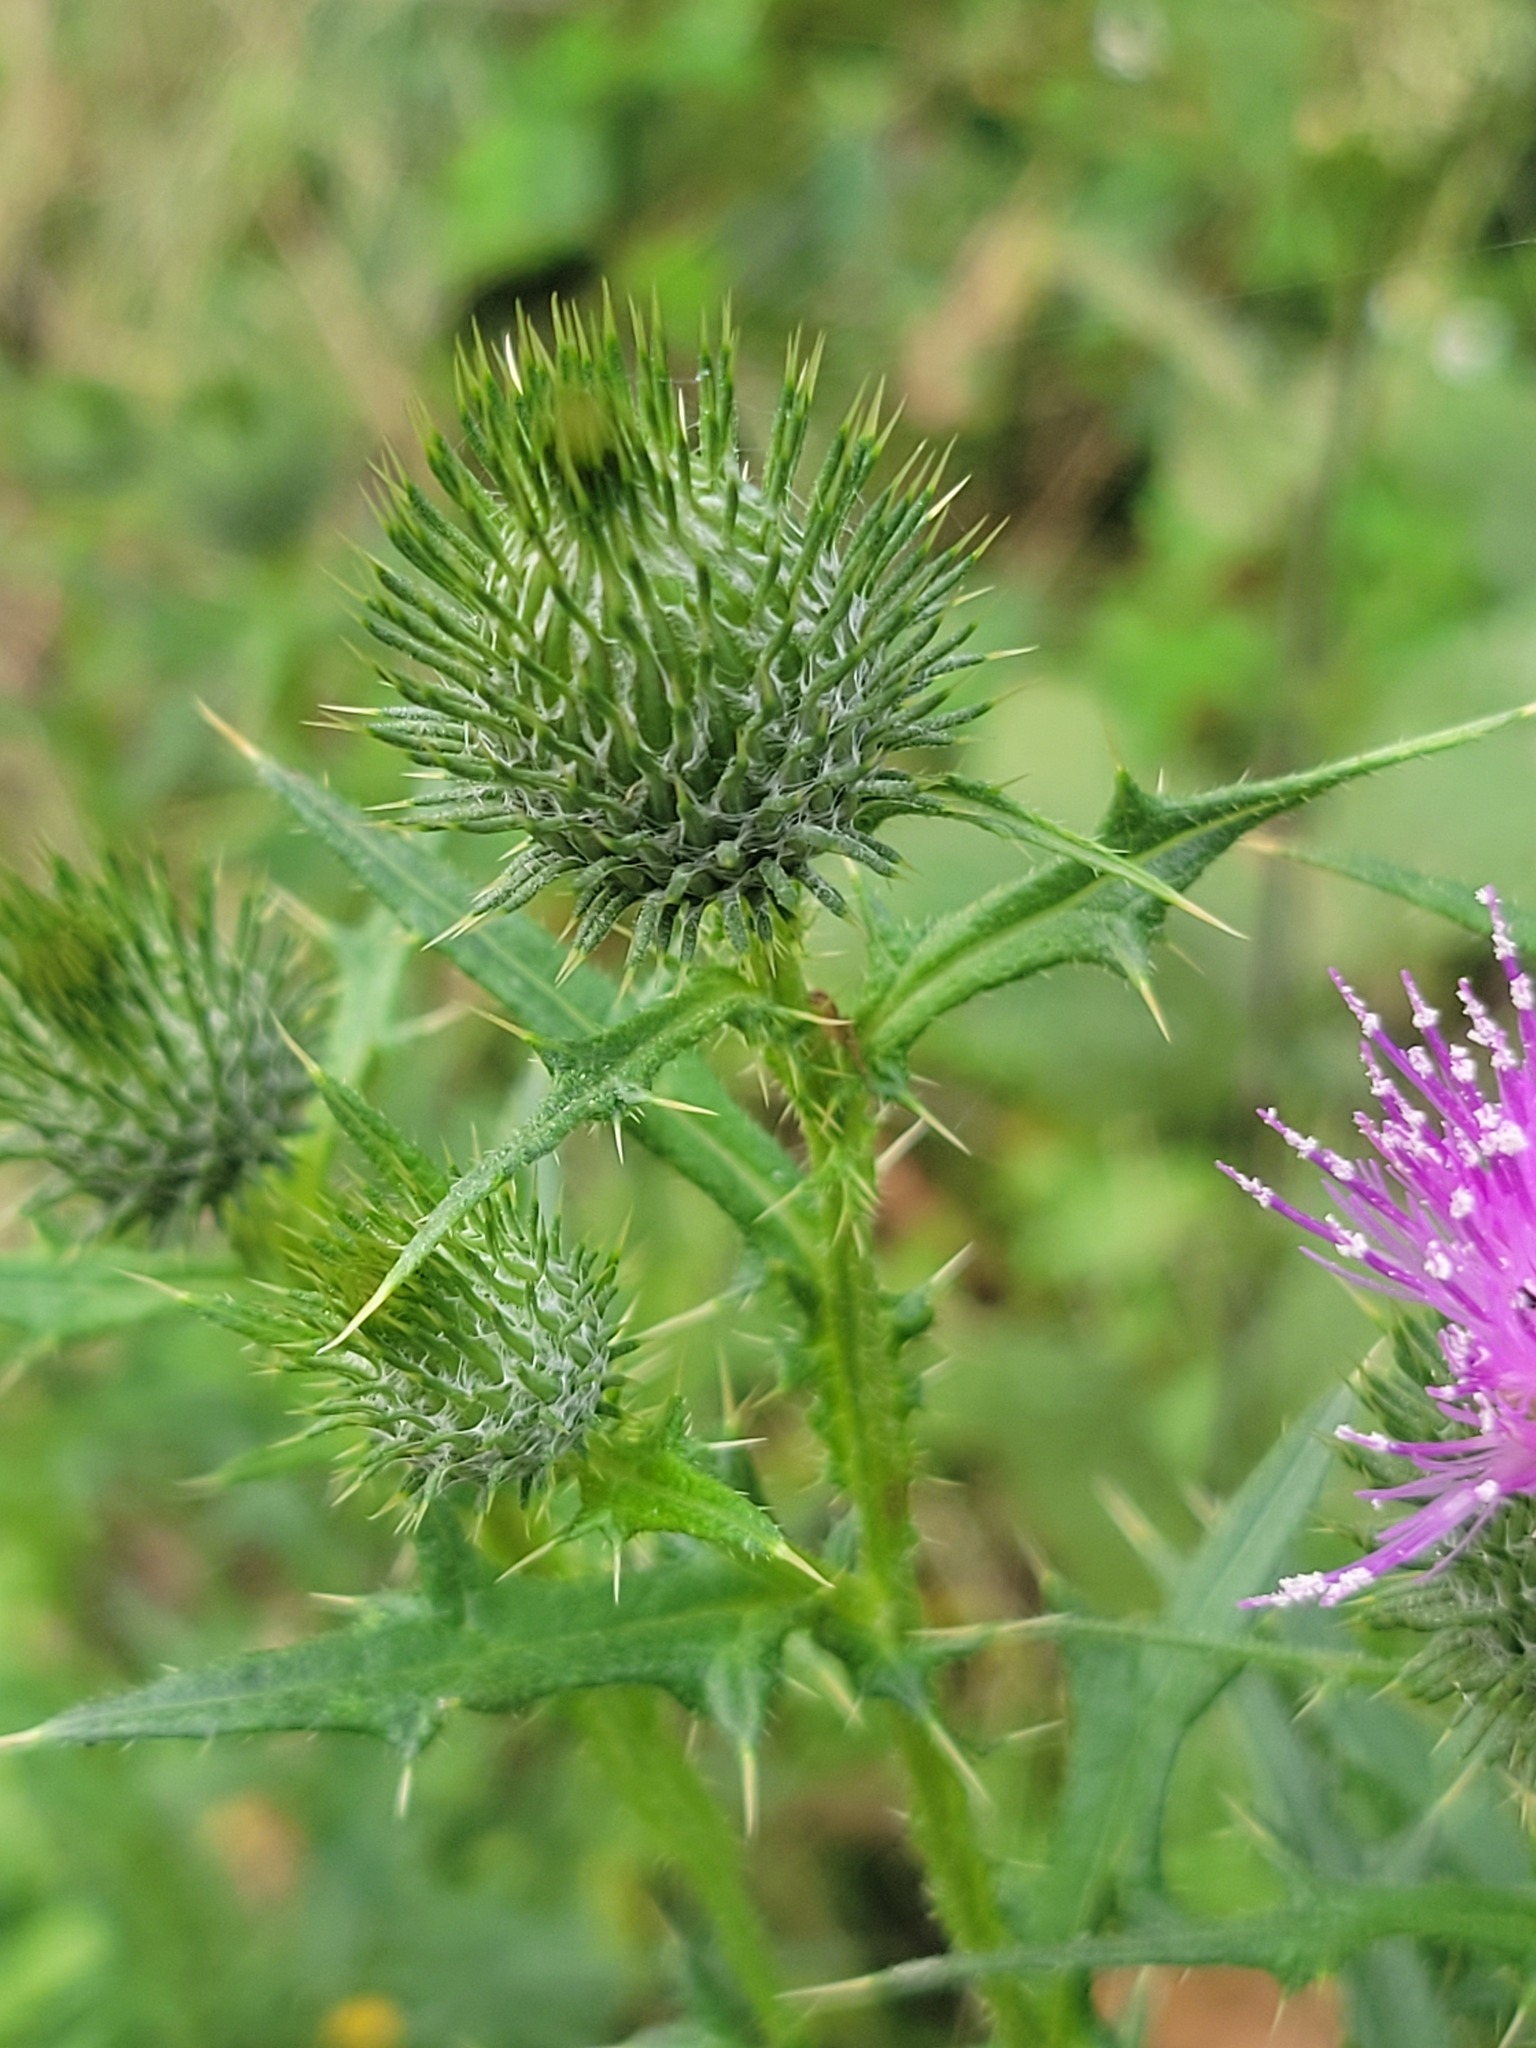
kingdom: Plantae
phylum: Tracheophyta
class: Magnoliopsida
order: Asterales
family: Asteraceae
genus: Cirsium
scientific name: Cirsium vulgare
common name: Bull thistle
